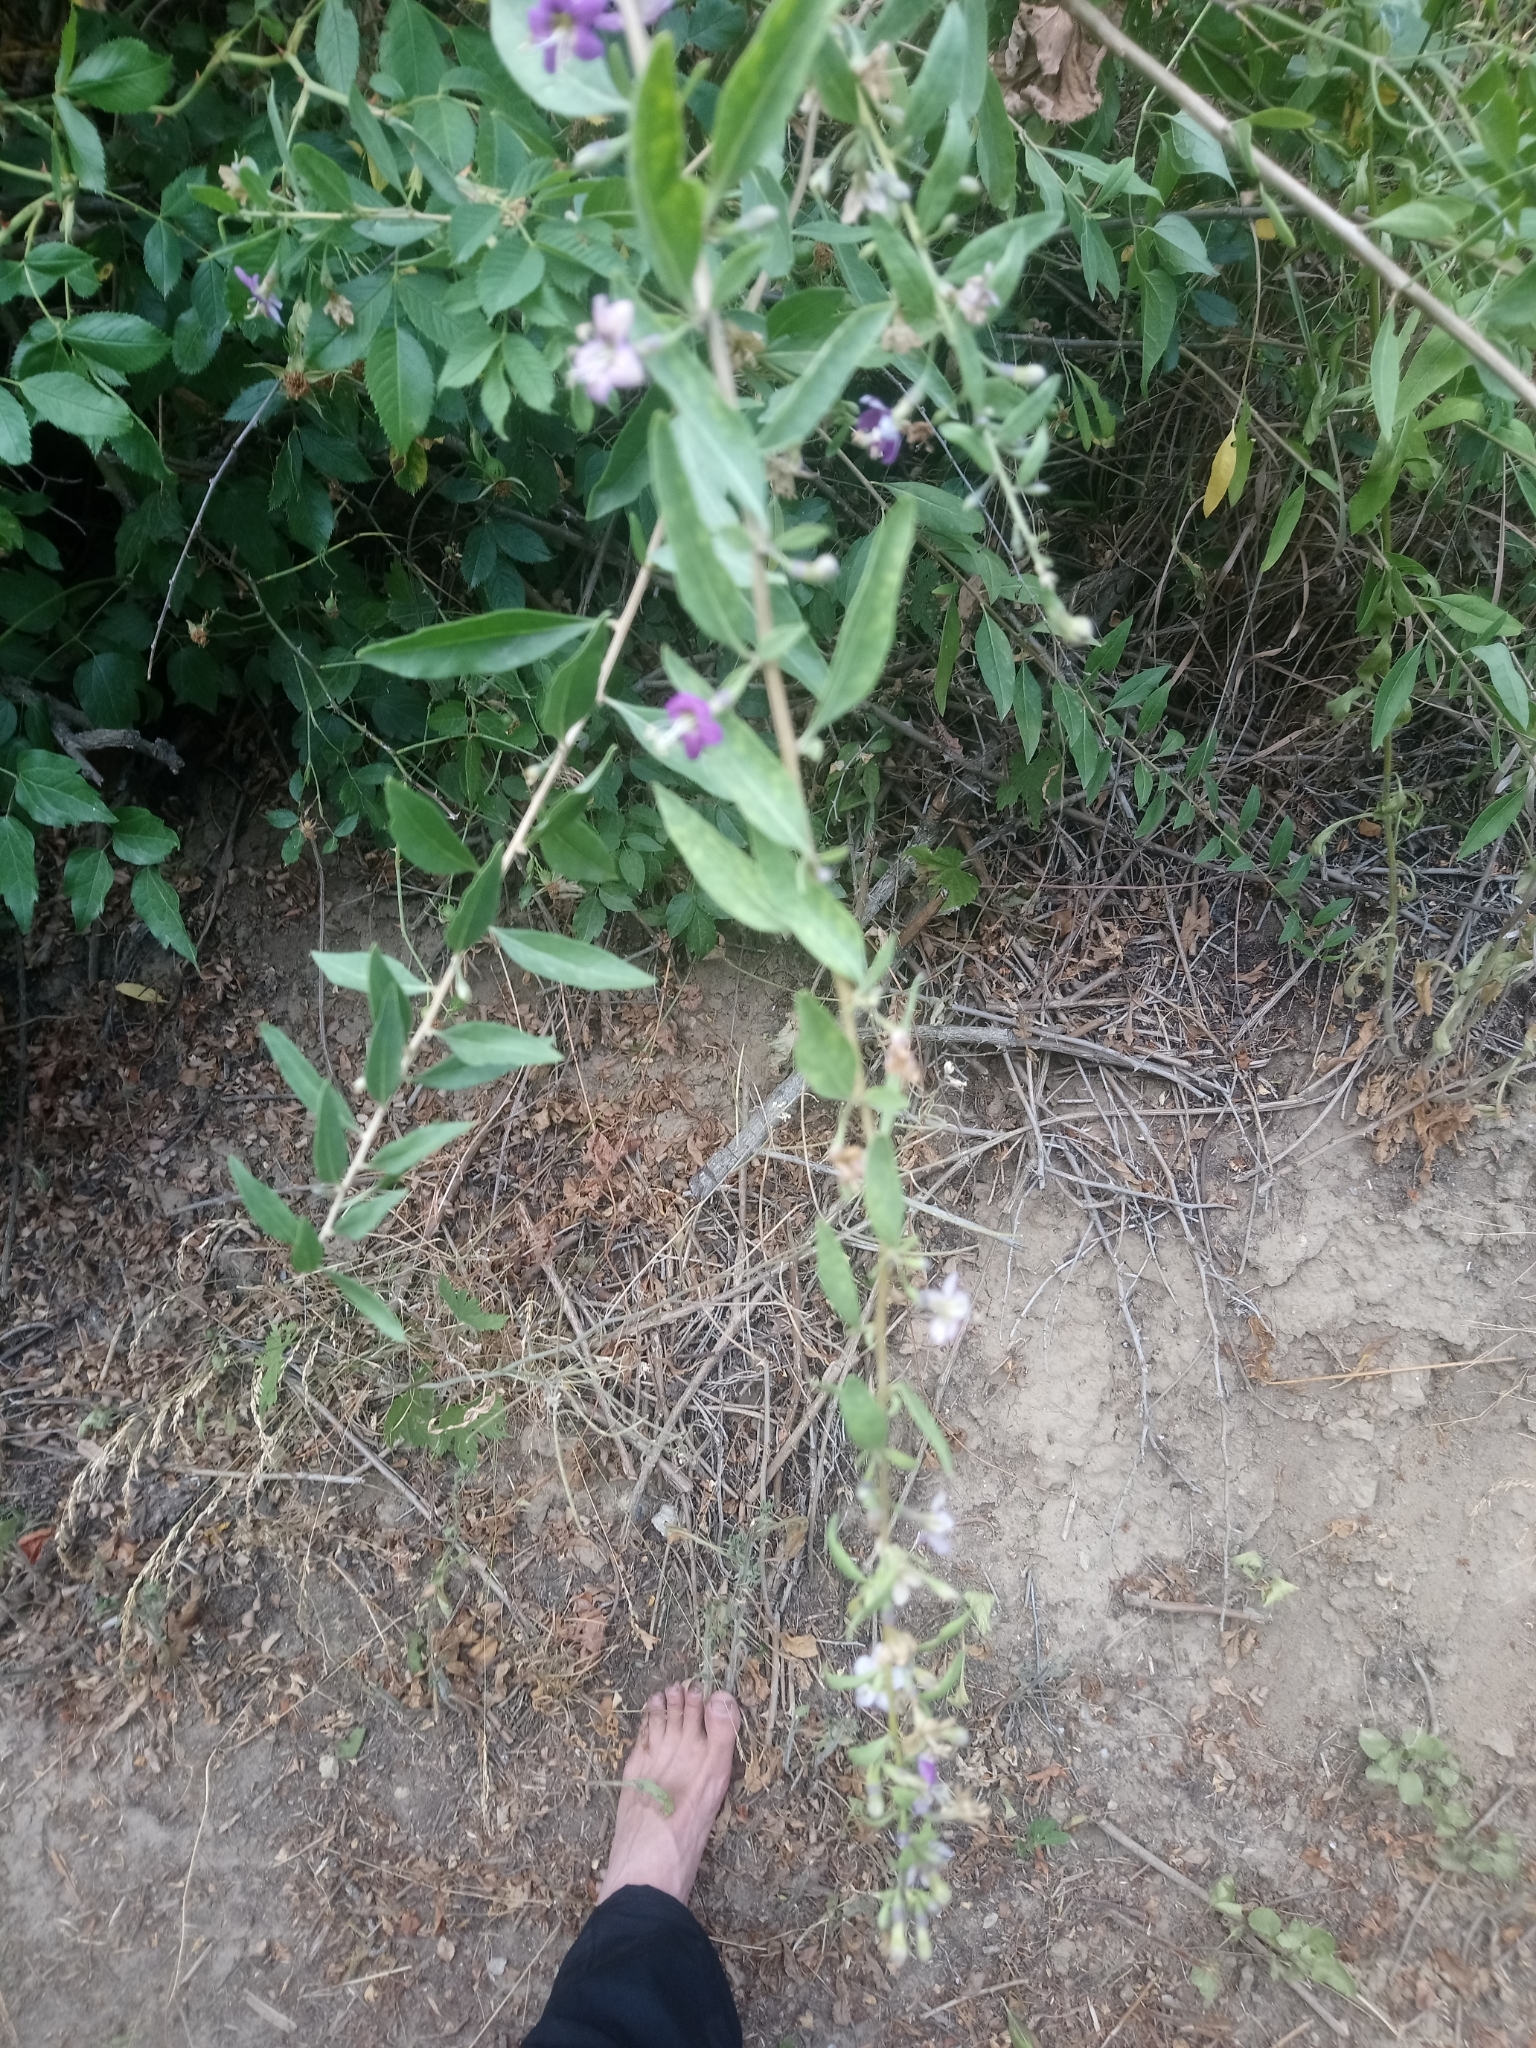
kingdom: Plantae
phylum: Tracheophyta
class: Magnoliopsida
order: Solanales
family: Solanaceae
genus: Lycium
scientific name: Lycium barbarum
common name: Duke of argyll's teaplant
